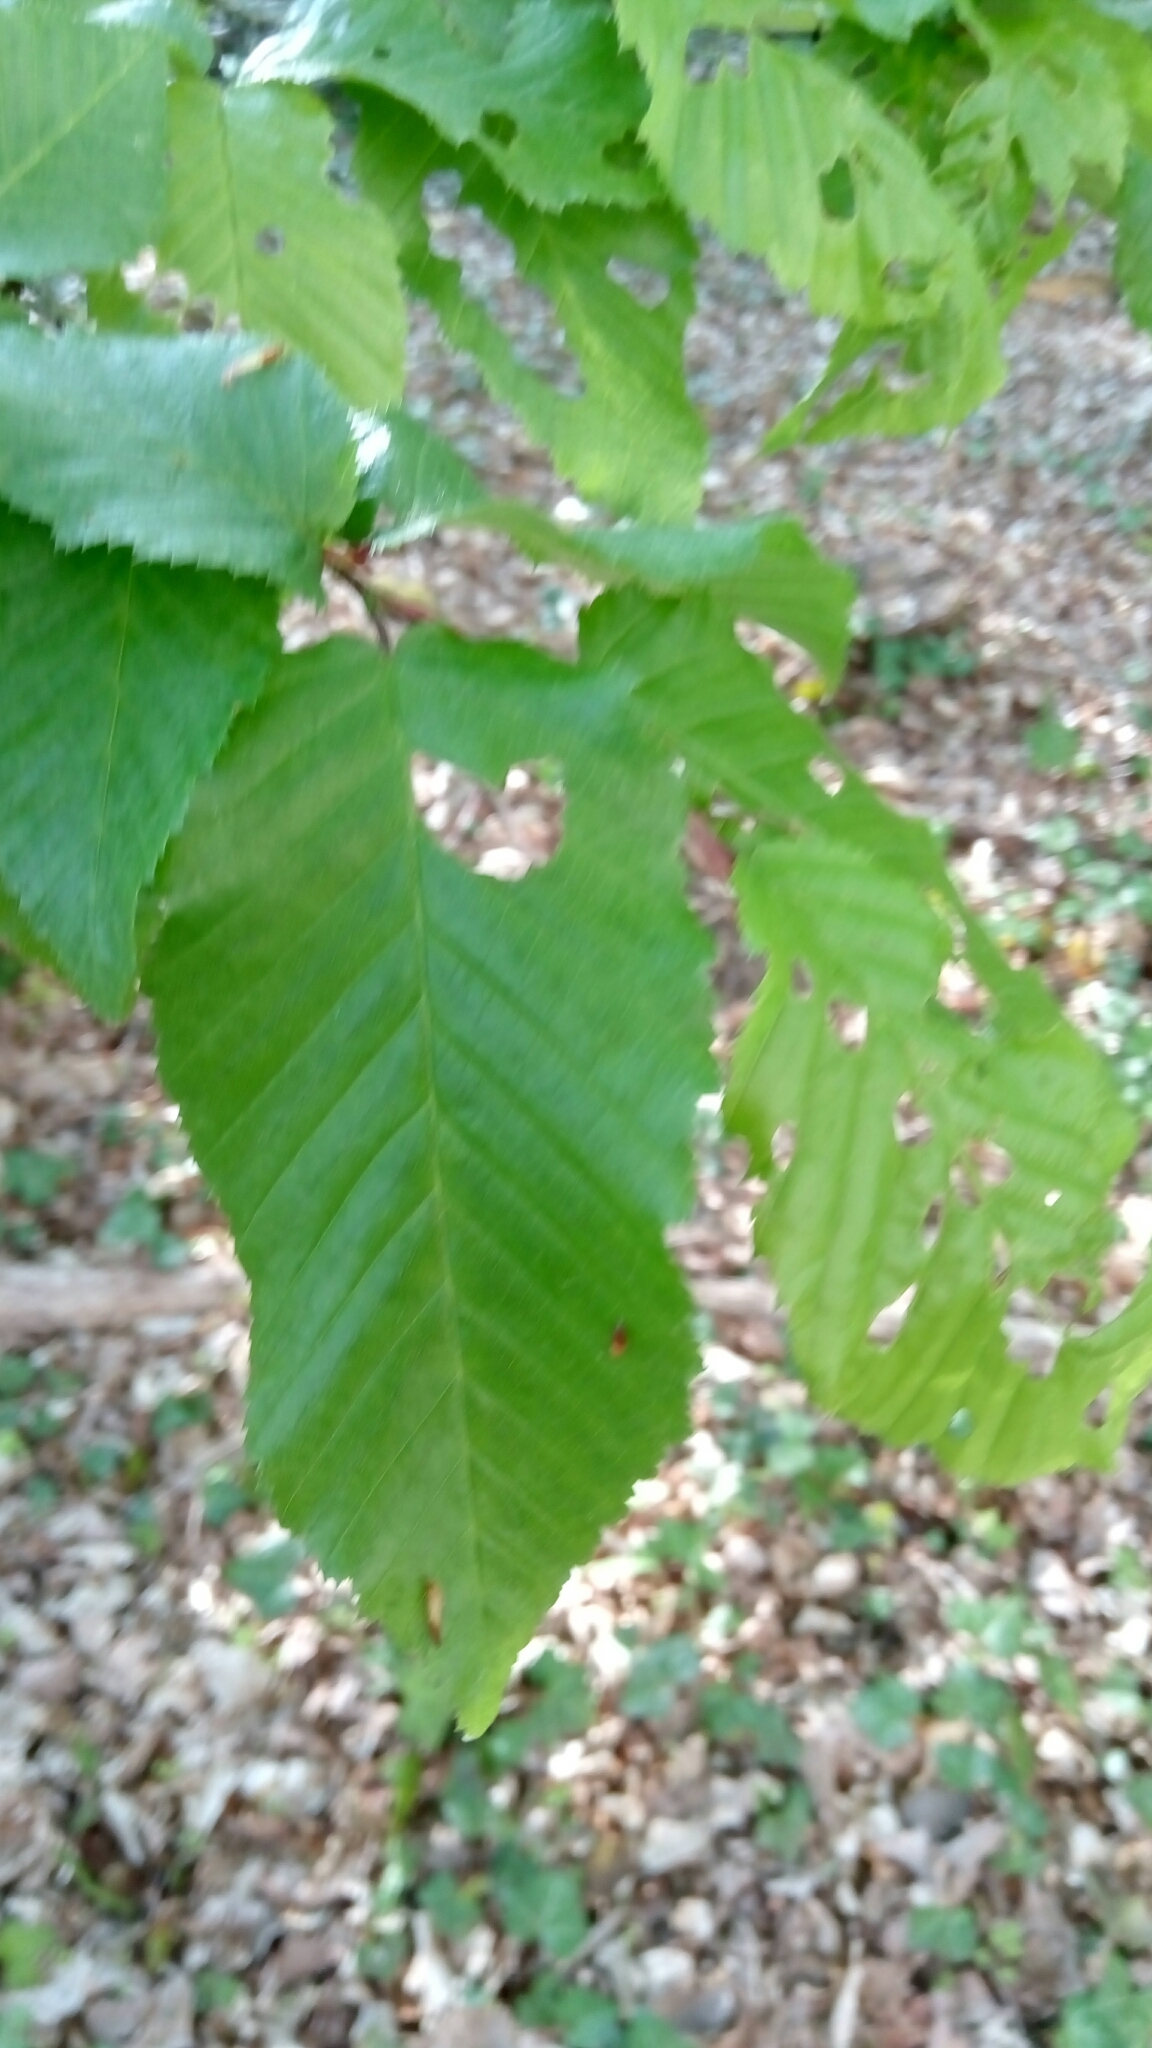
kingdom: Plantae
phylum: Tracheophyta
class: Magnoliopsida
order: Fagales
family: Betulaceae
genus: Carpinus
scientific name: Carpinus betulus
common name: Hornbeam
